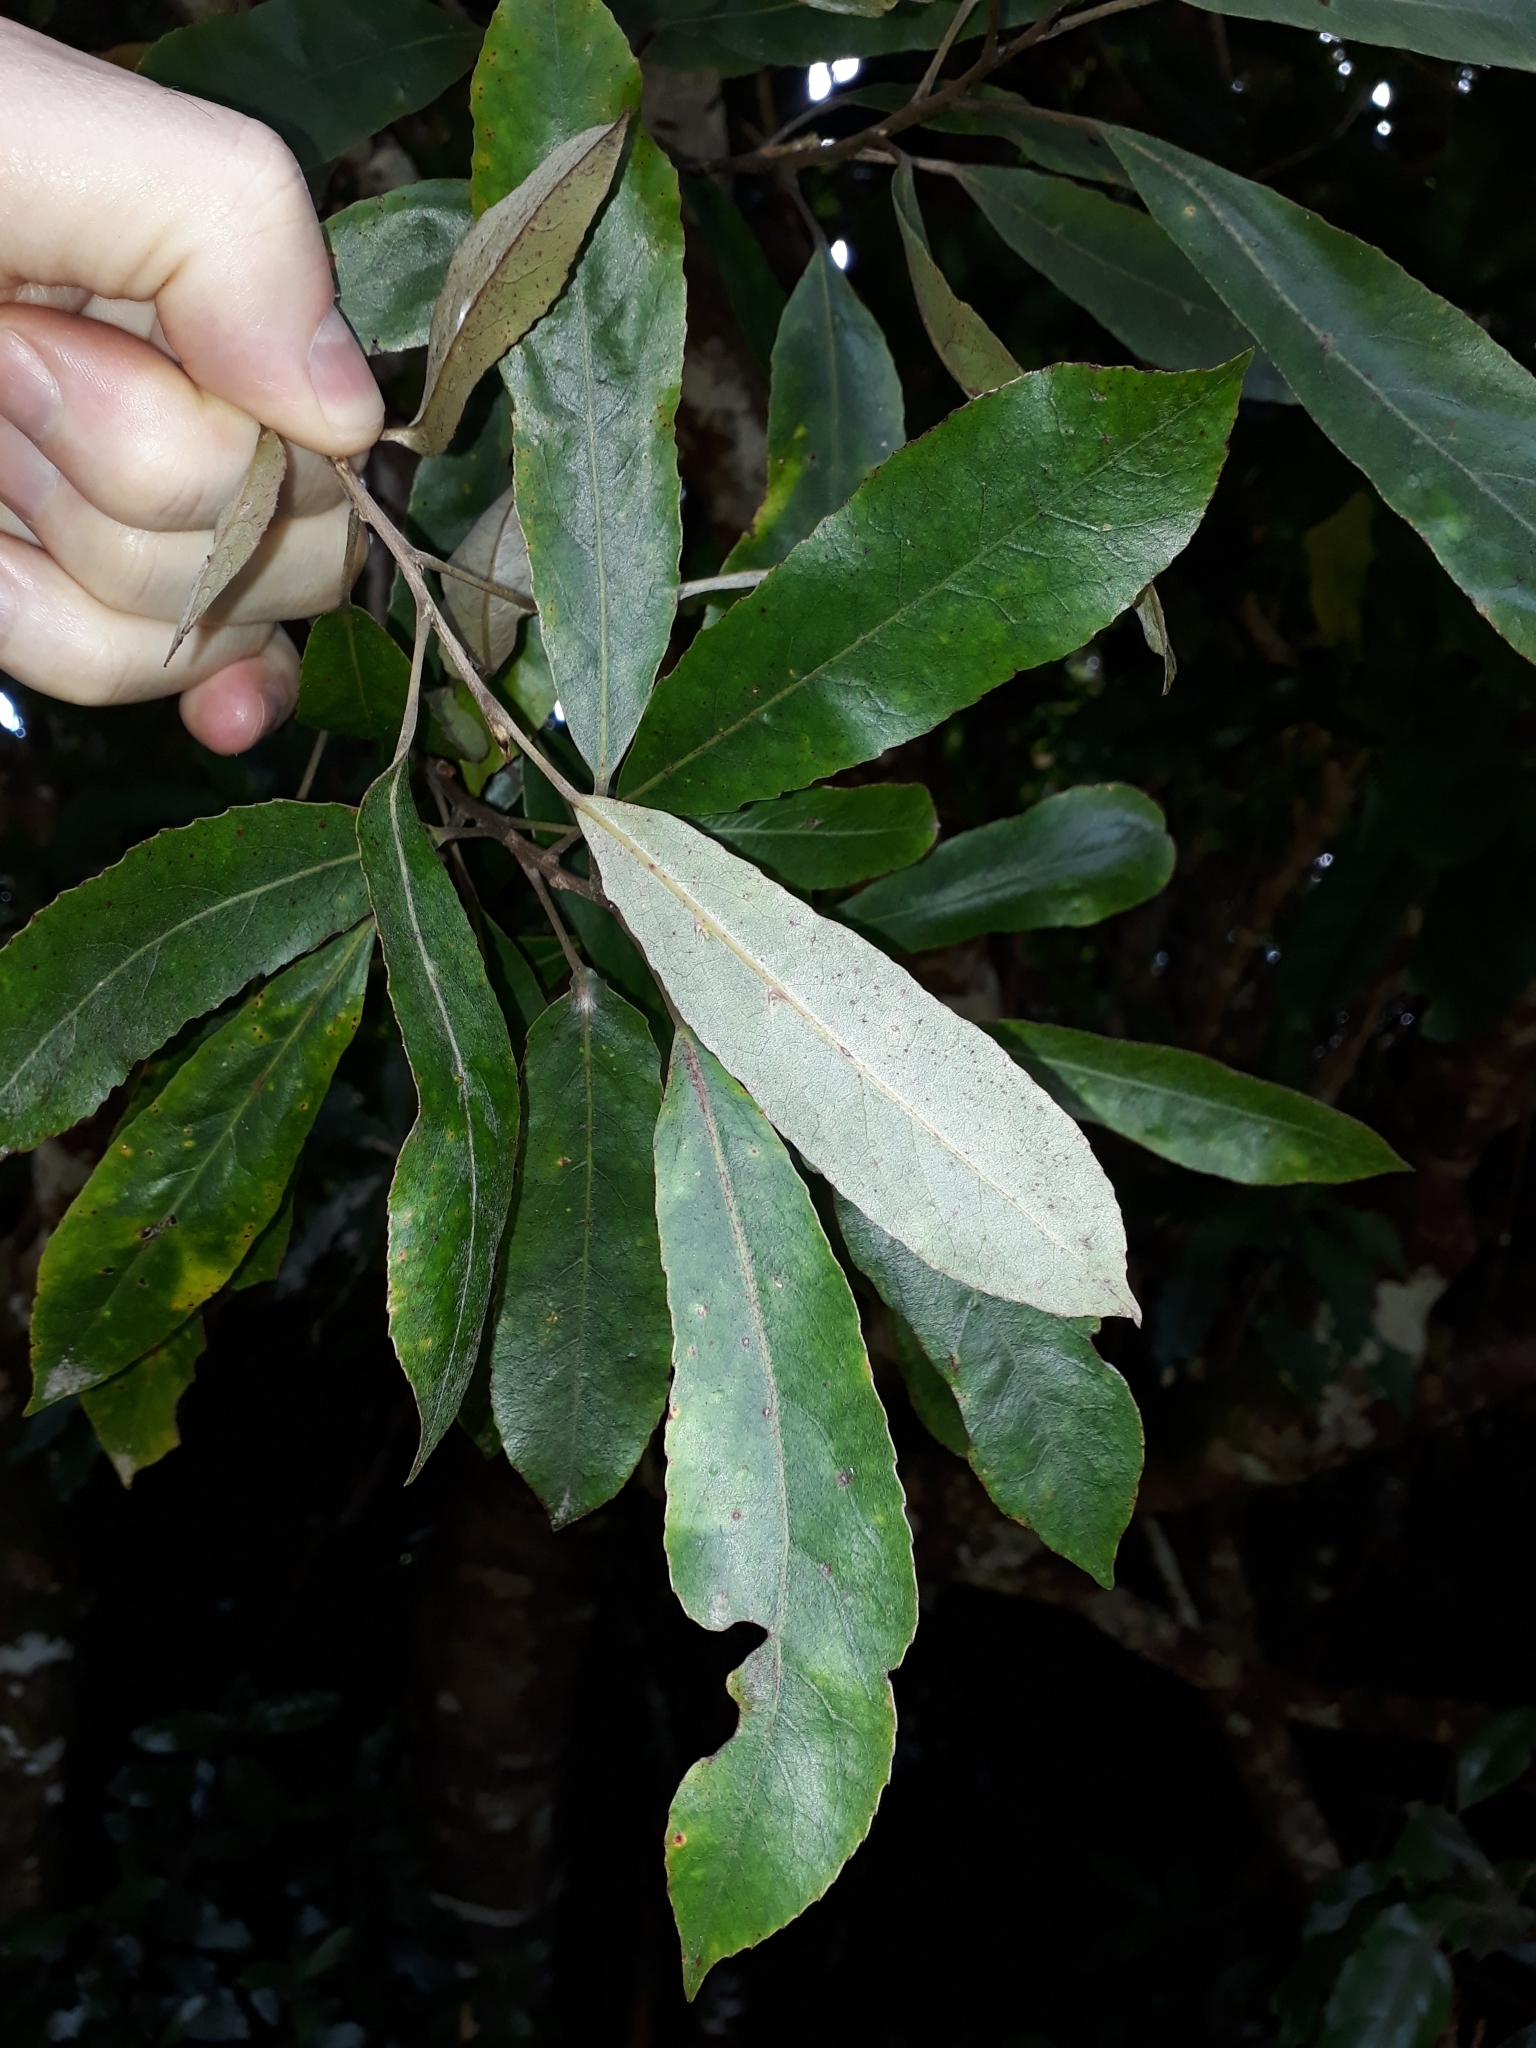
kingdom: Plantae
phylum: Tracheophyta
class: Magnoliopsida
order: Oxalidales
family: Elaeocarpaceae
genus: Elaeocarpus
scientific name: Elaeocarpus dentatus
